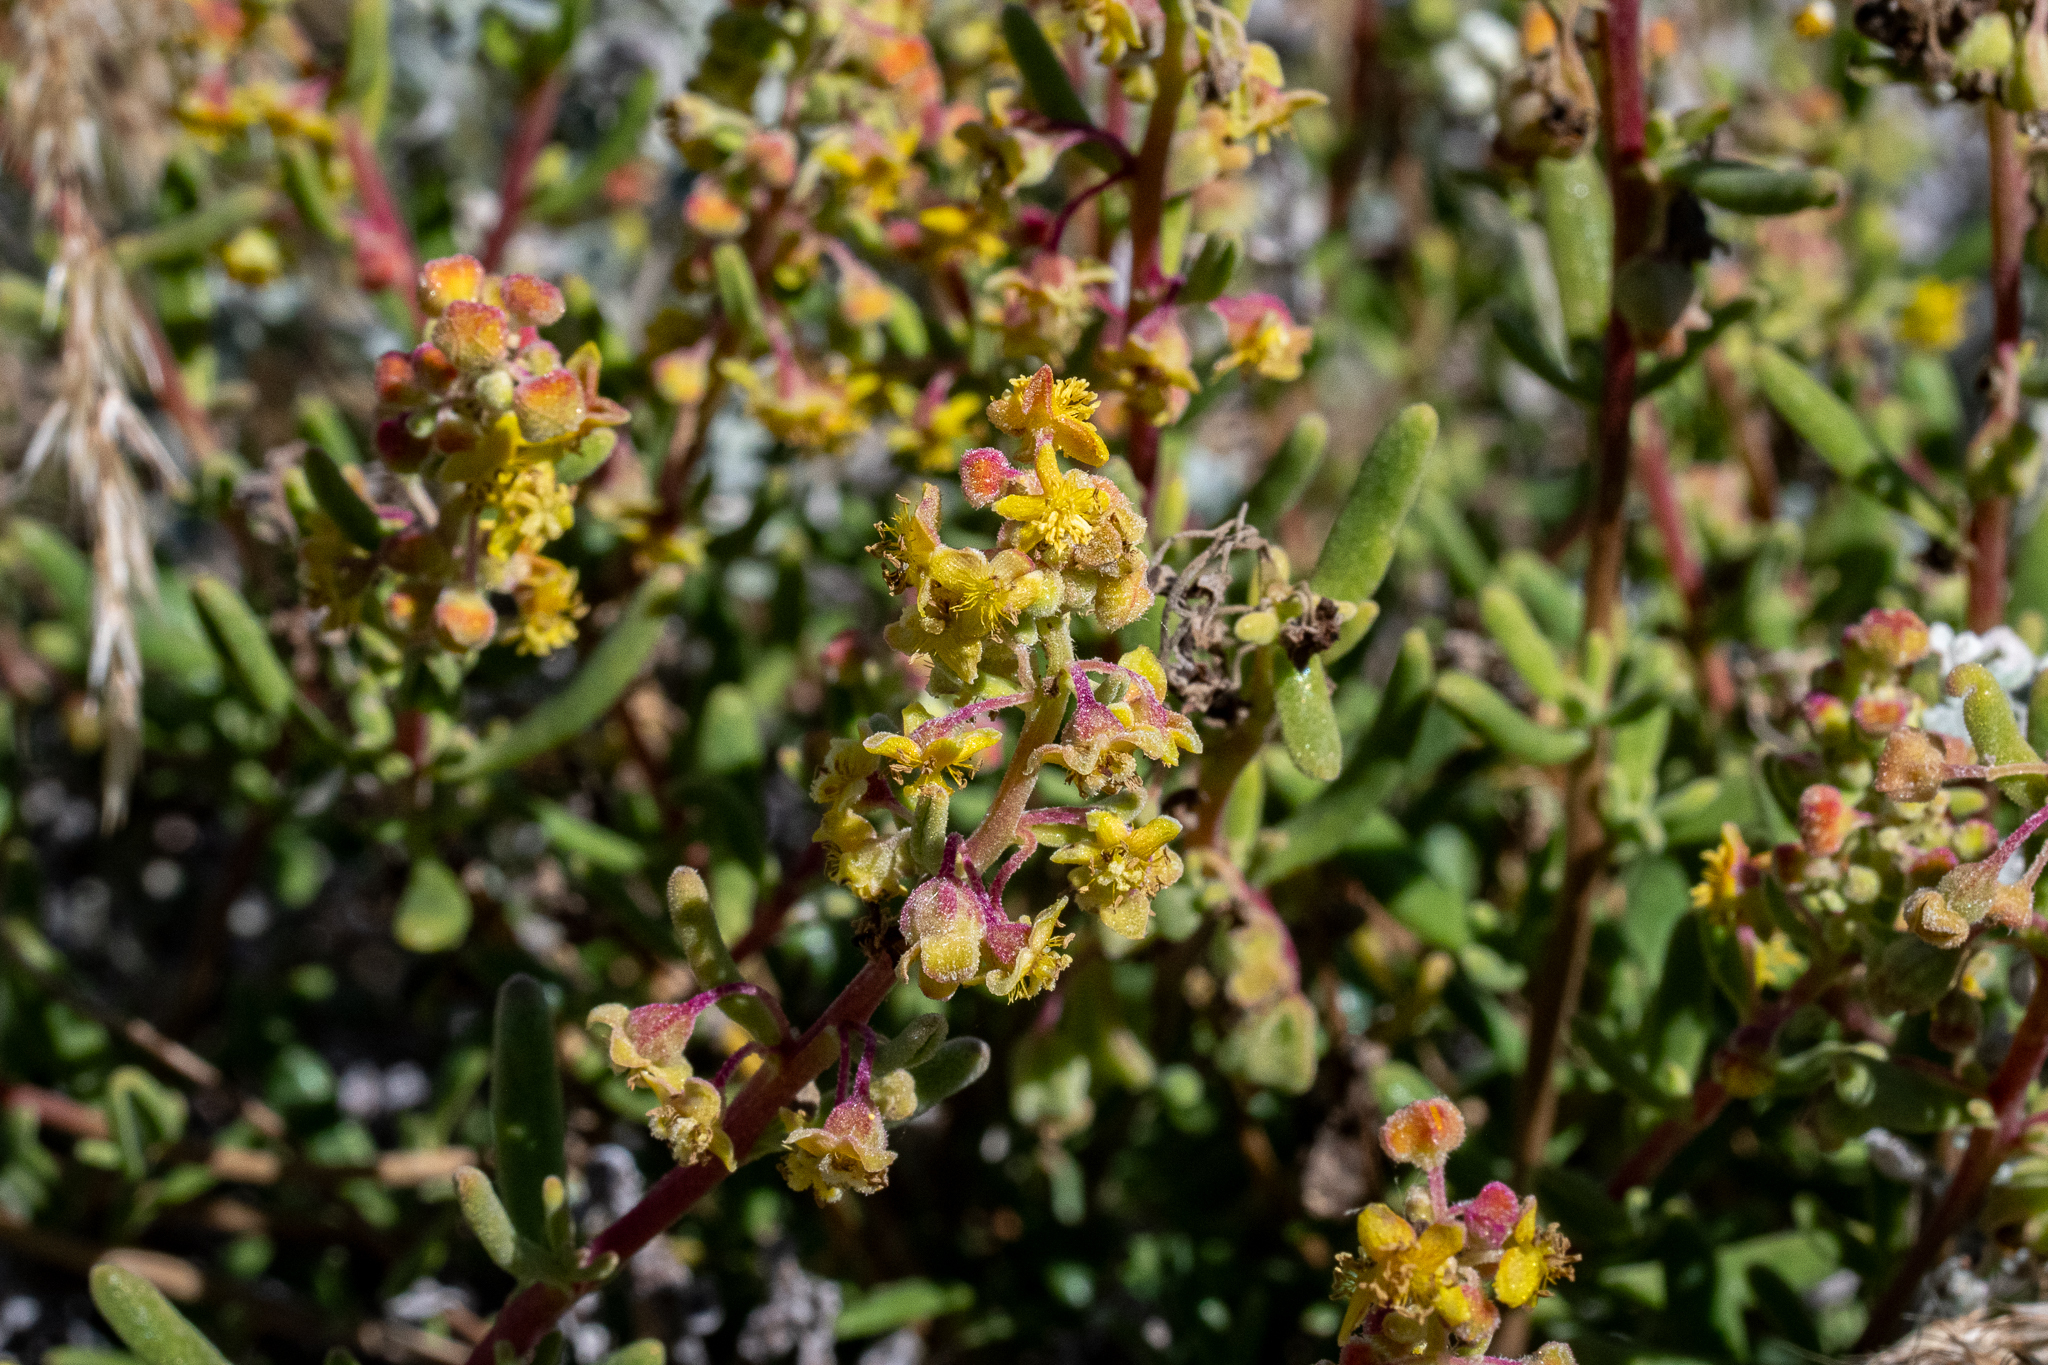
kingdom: Plantae
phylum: Tracheophyta
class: Magnoliopsida
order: Caryophyllales
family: Aizoaceae
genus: Tetragonia
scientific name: Tetragonia fruticosa
